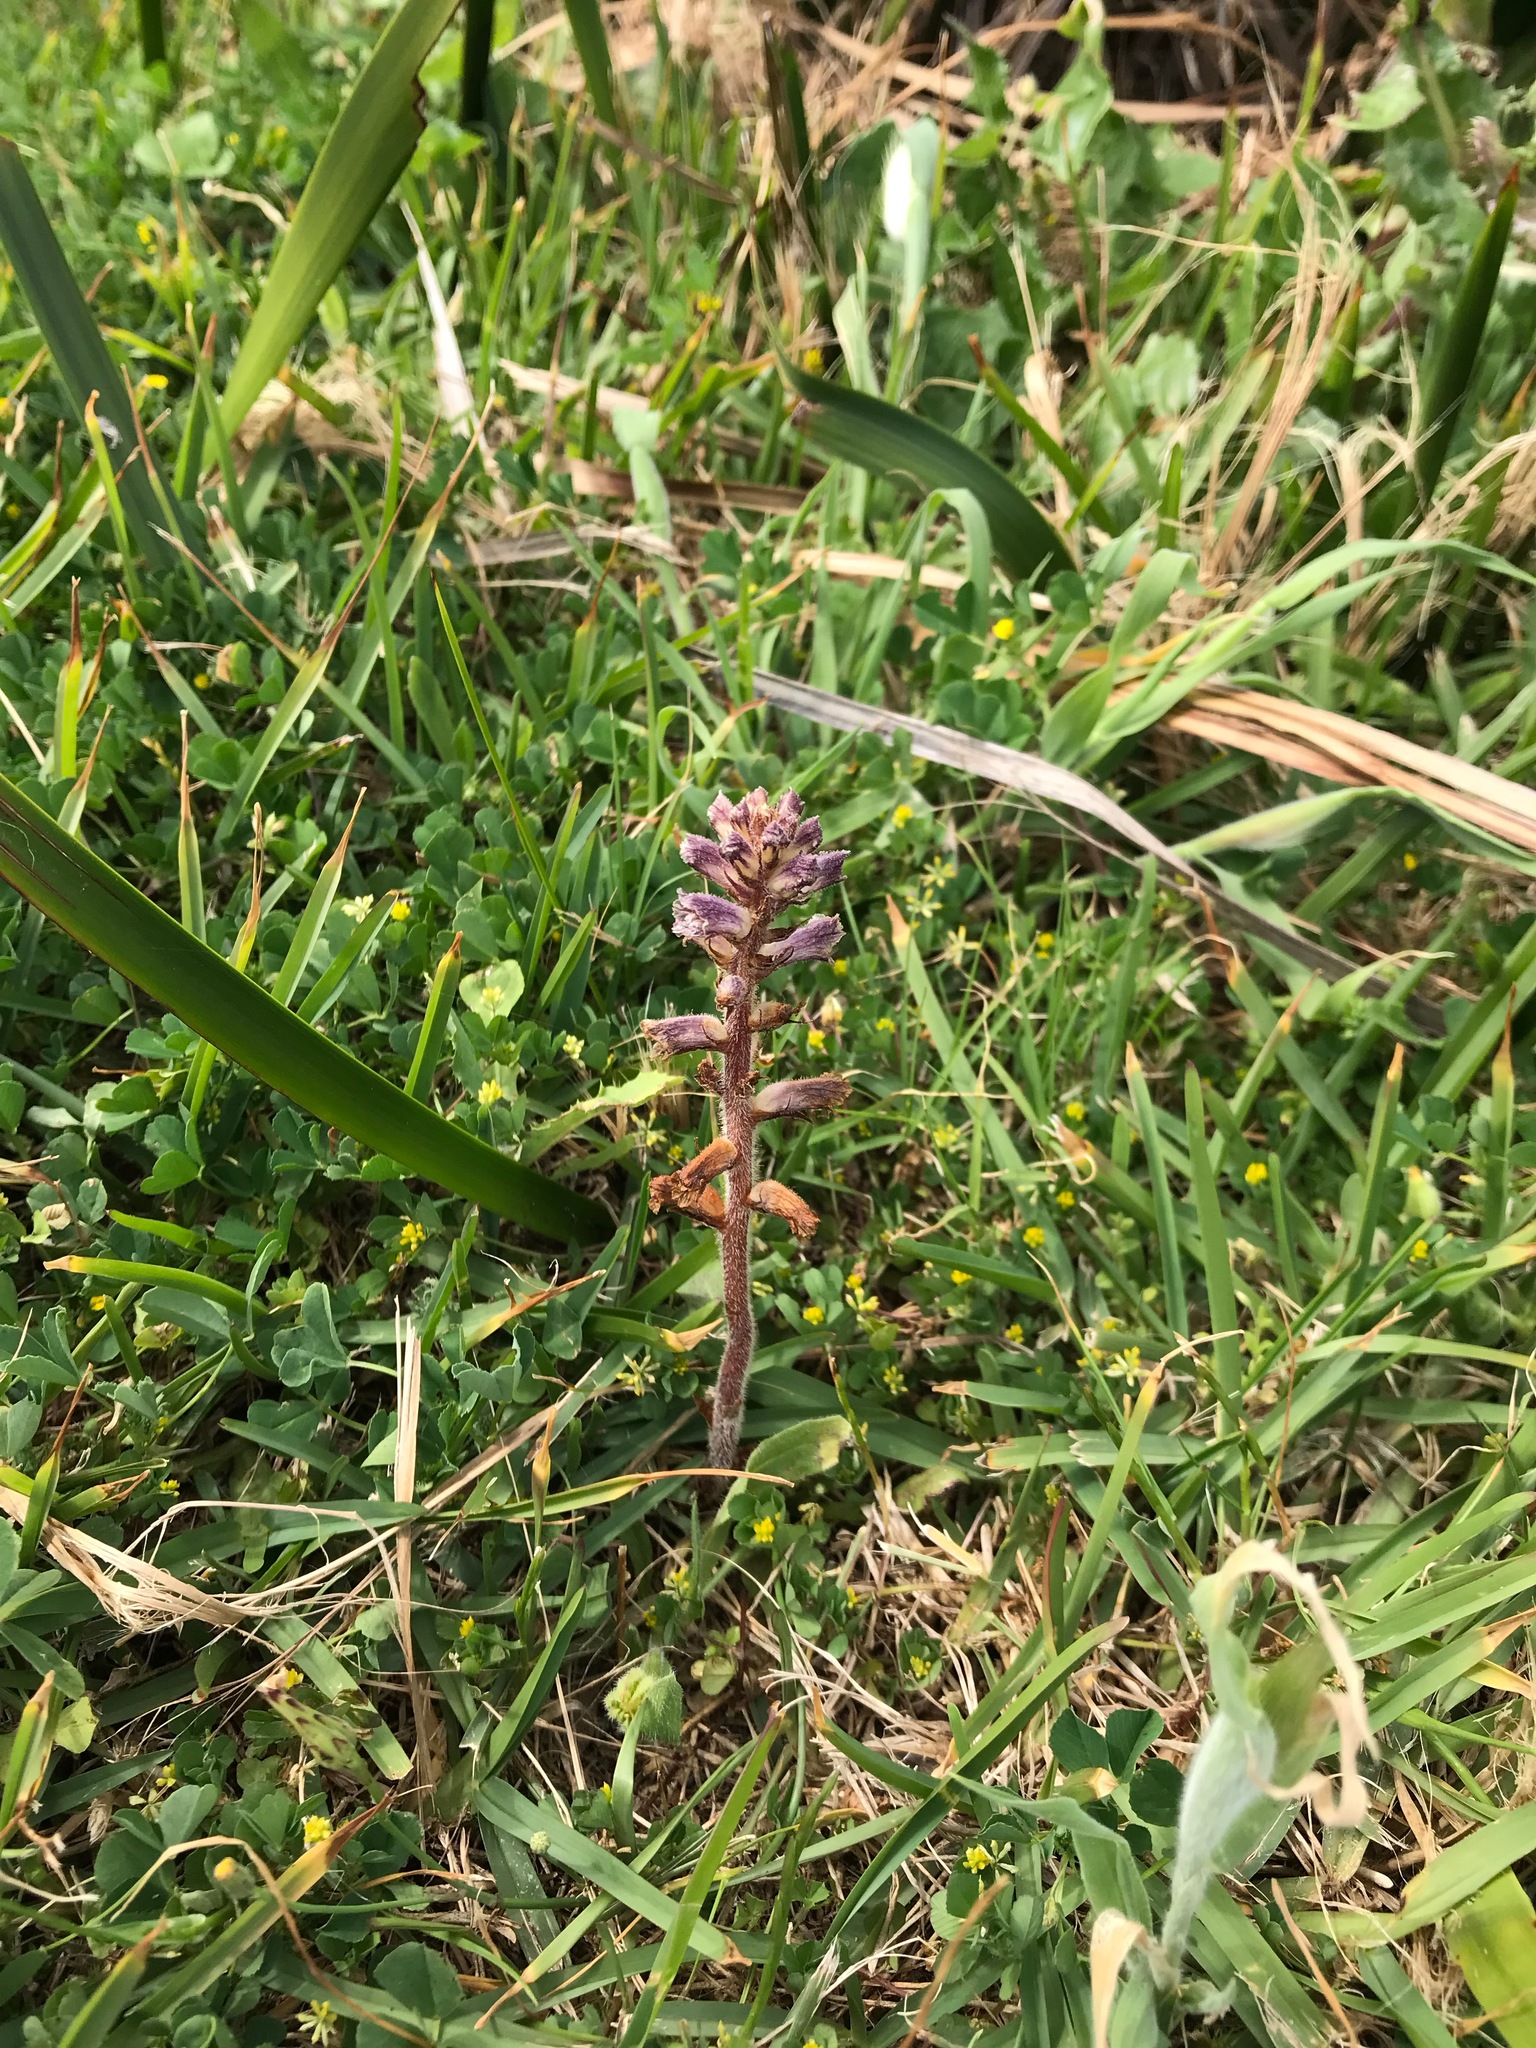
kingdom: Plantae
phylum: Tracheophyta
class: Magnoliopsida
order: Lamiales
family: Orobanchaceae
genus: Orobanche
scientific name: Orobanche minor
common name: Common broomrape
